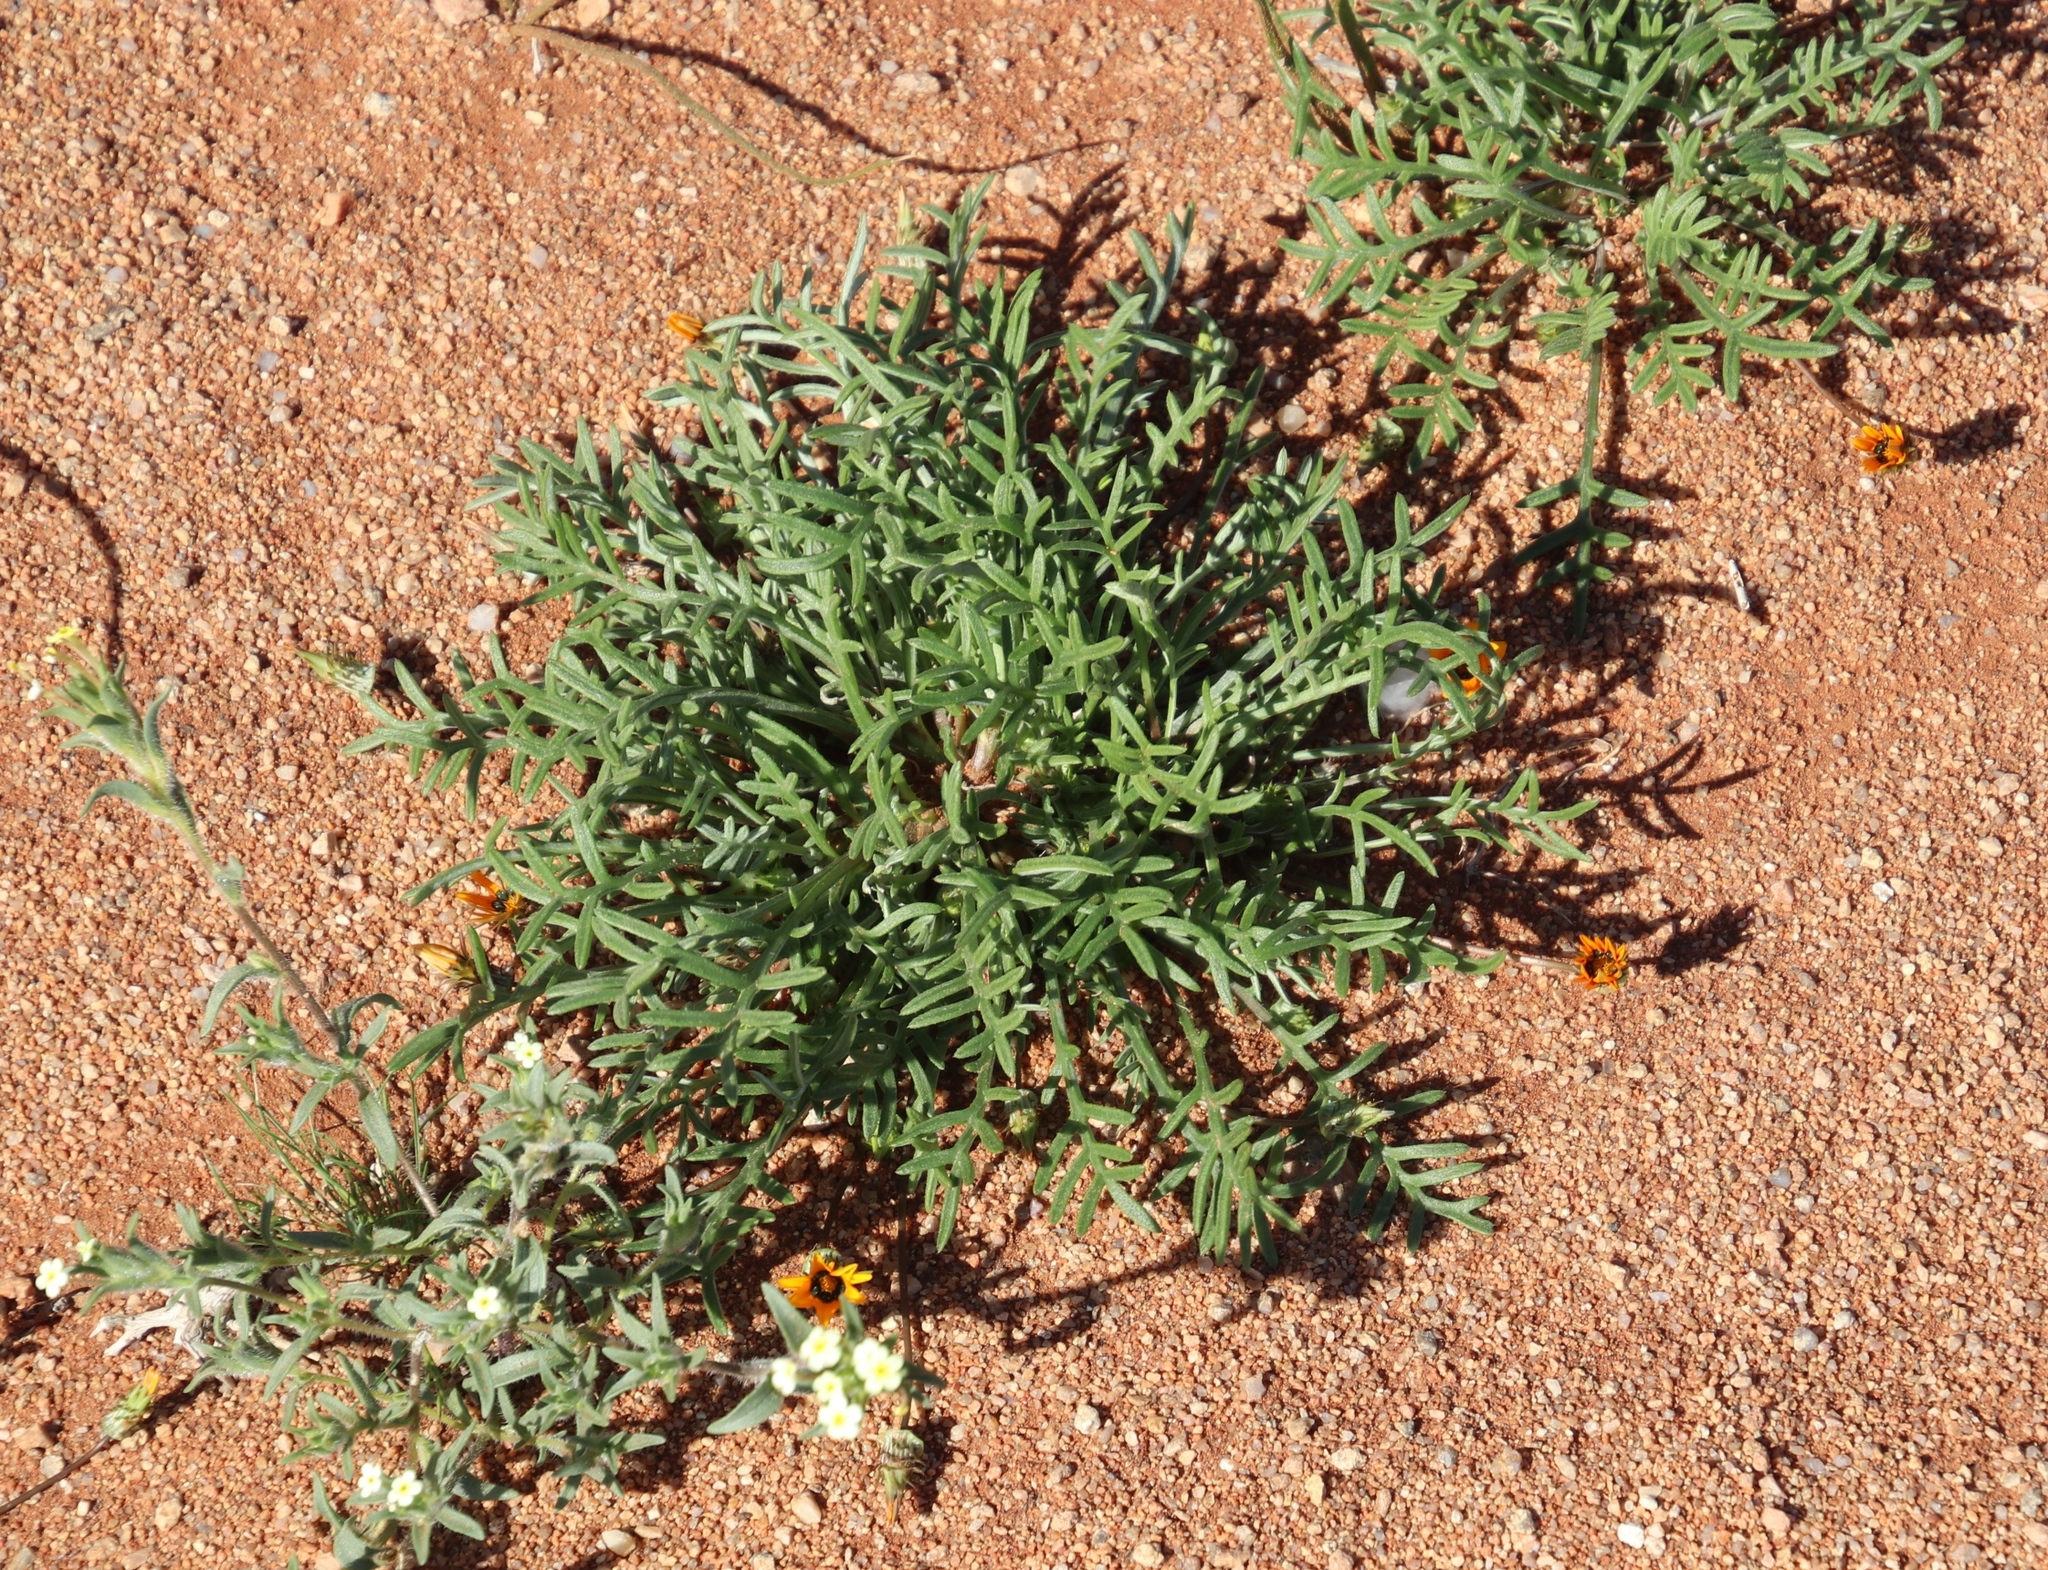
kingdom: Plantae
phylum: Tracheophyta
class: Magnoliopsida
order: Asterales
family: Asteraceae
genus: Gazania
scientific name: Gazania tenuifolia
